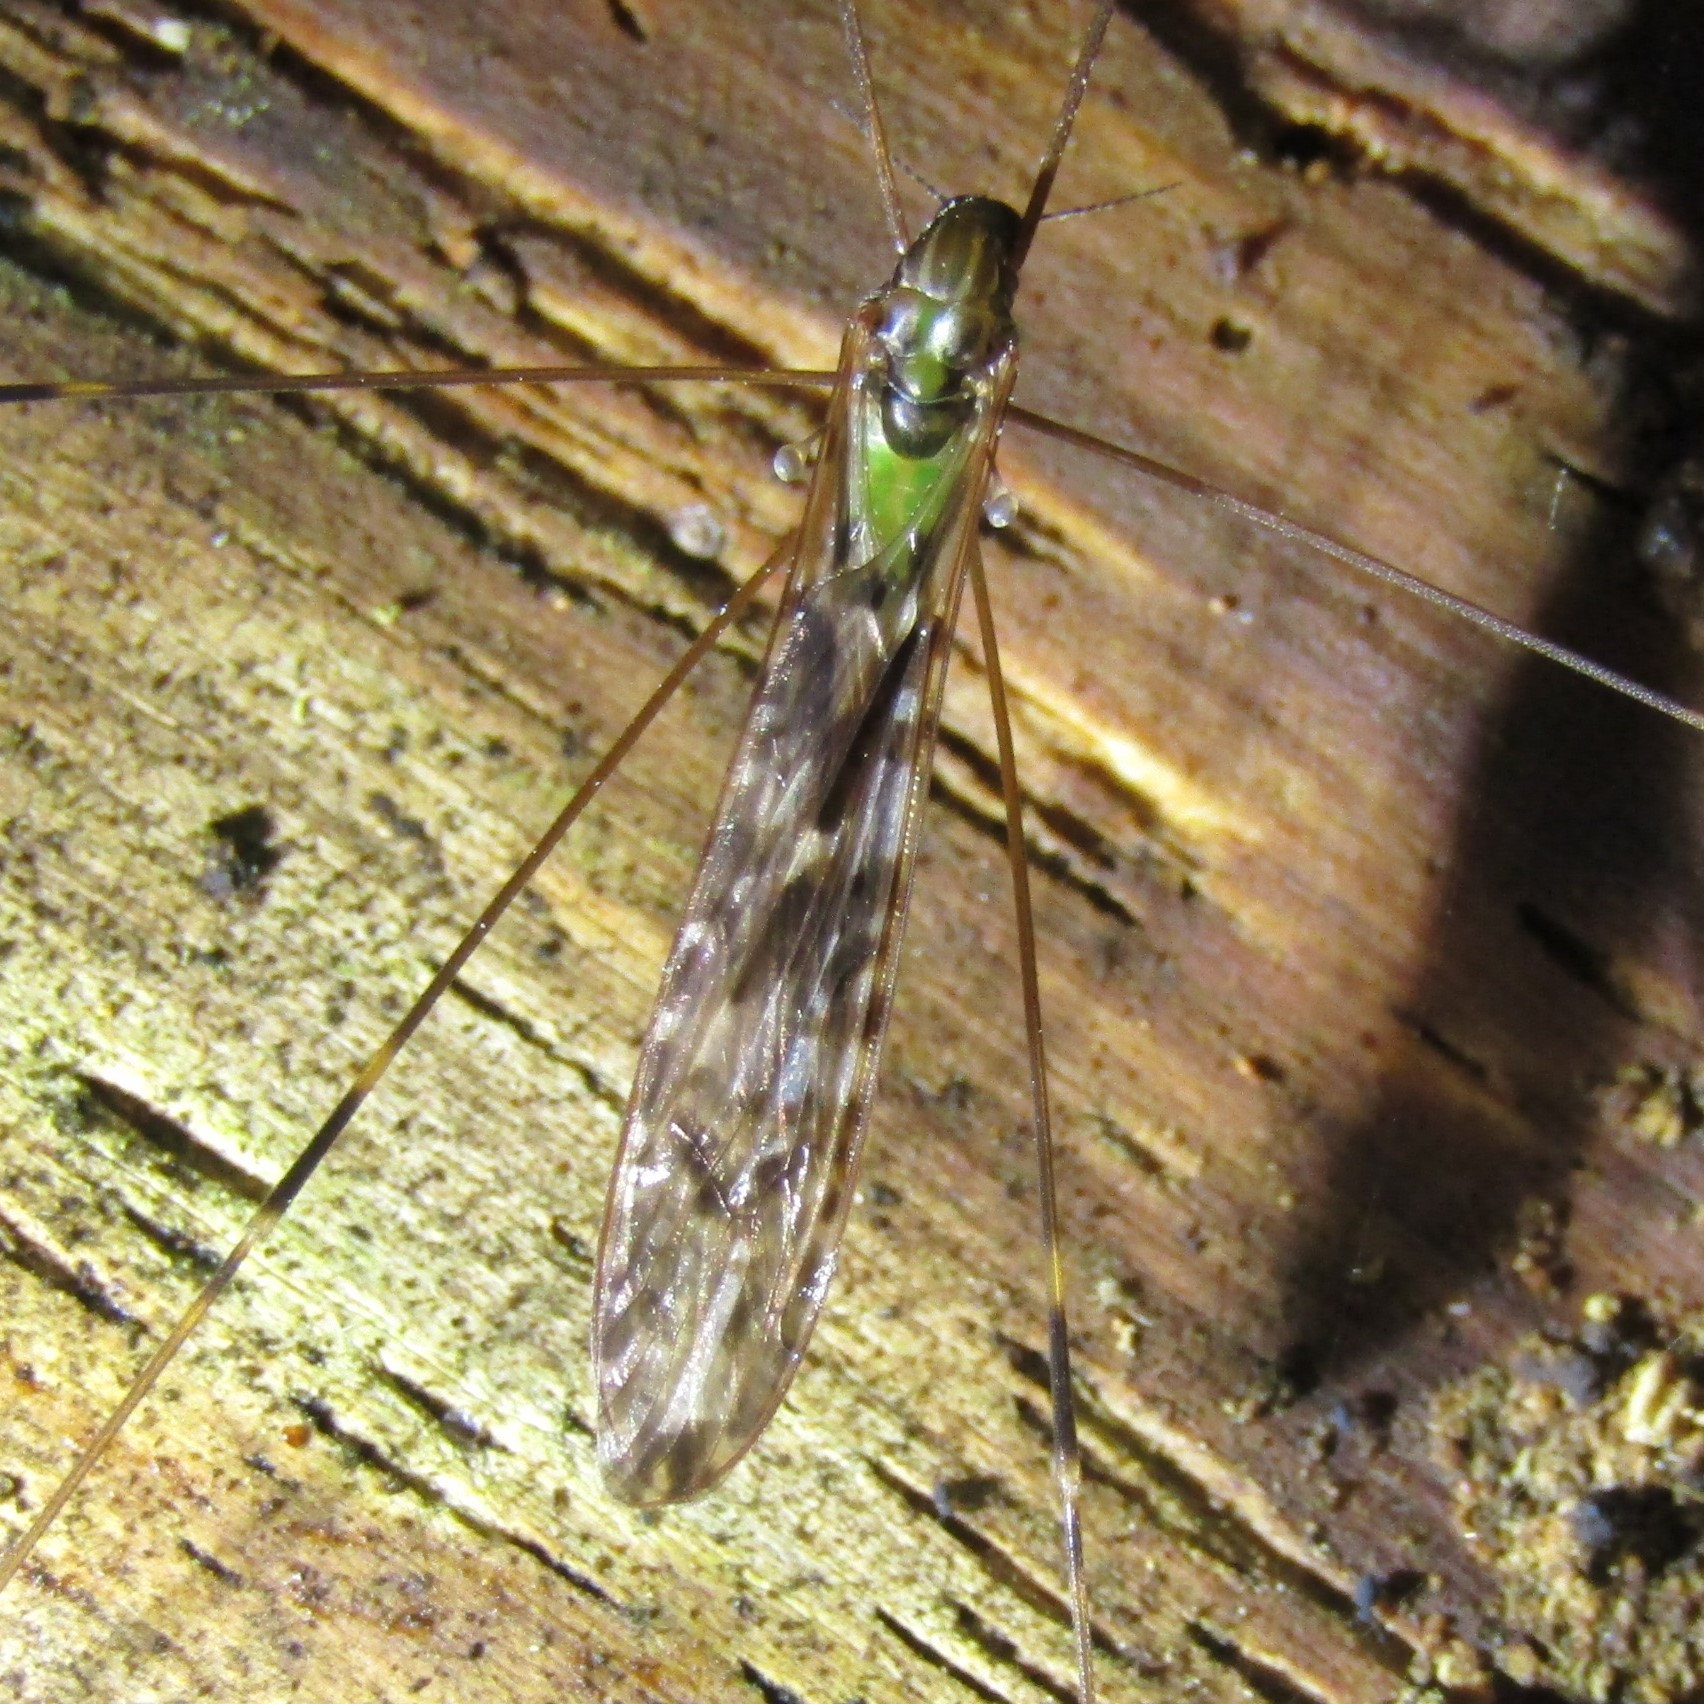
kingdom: Animalia
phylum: Arthropoda
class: Insecta
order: Diptera
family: Limoniidae
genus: Discobola
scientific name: Discobola dohrni
